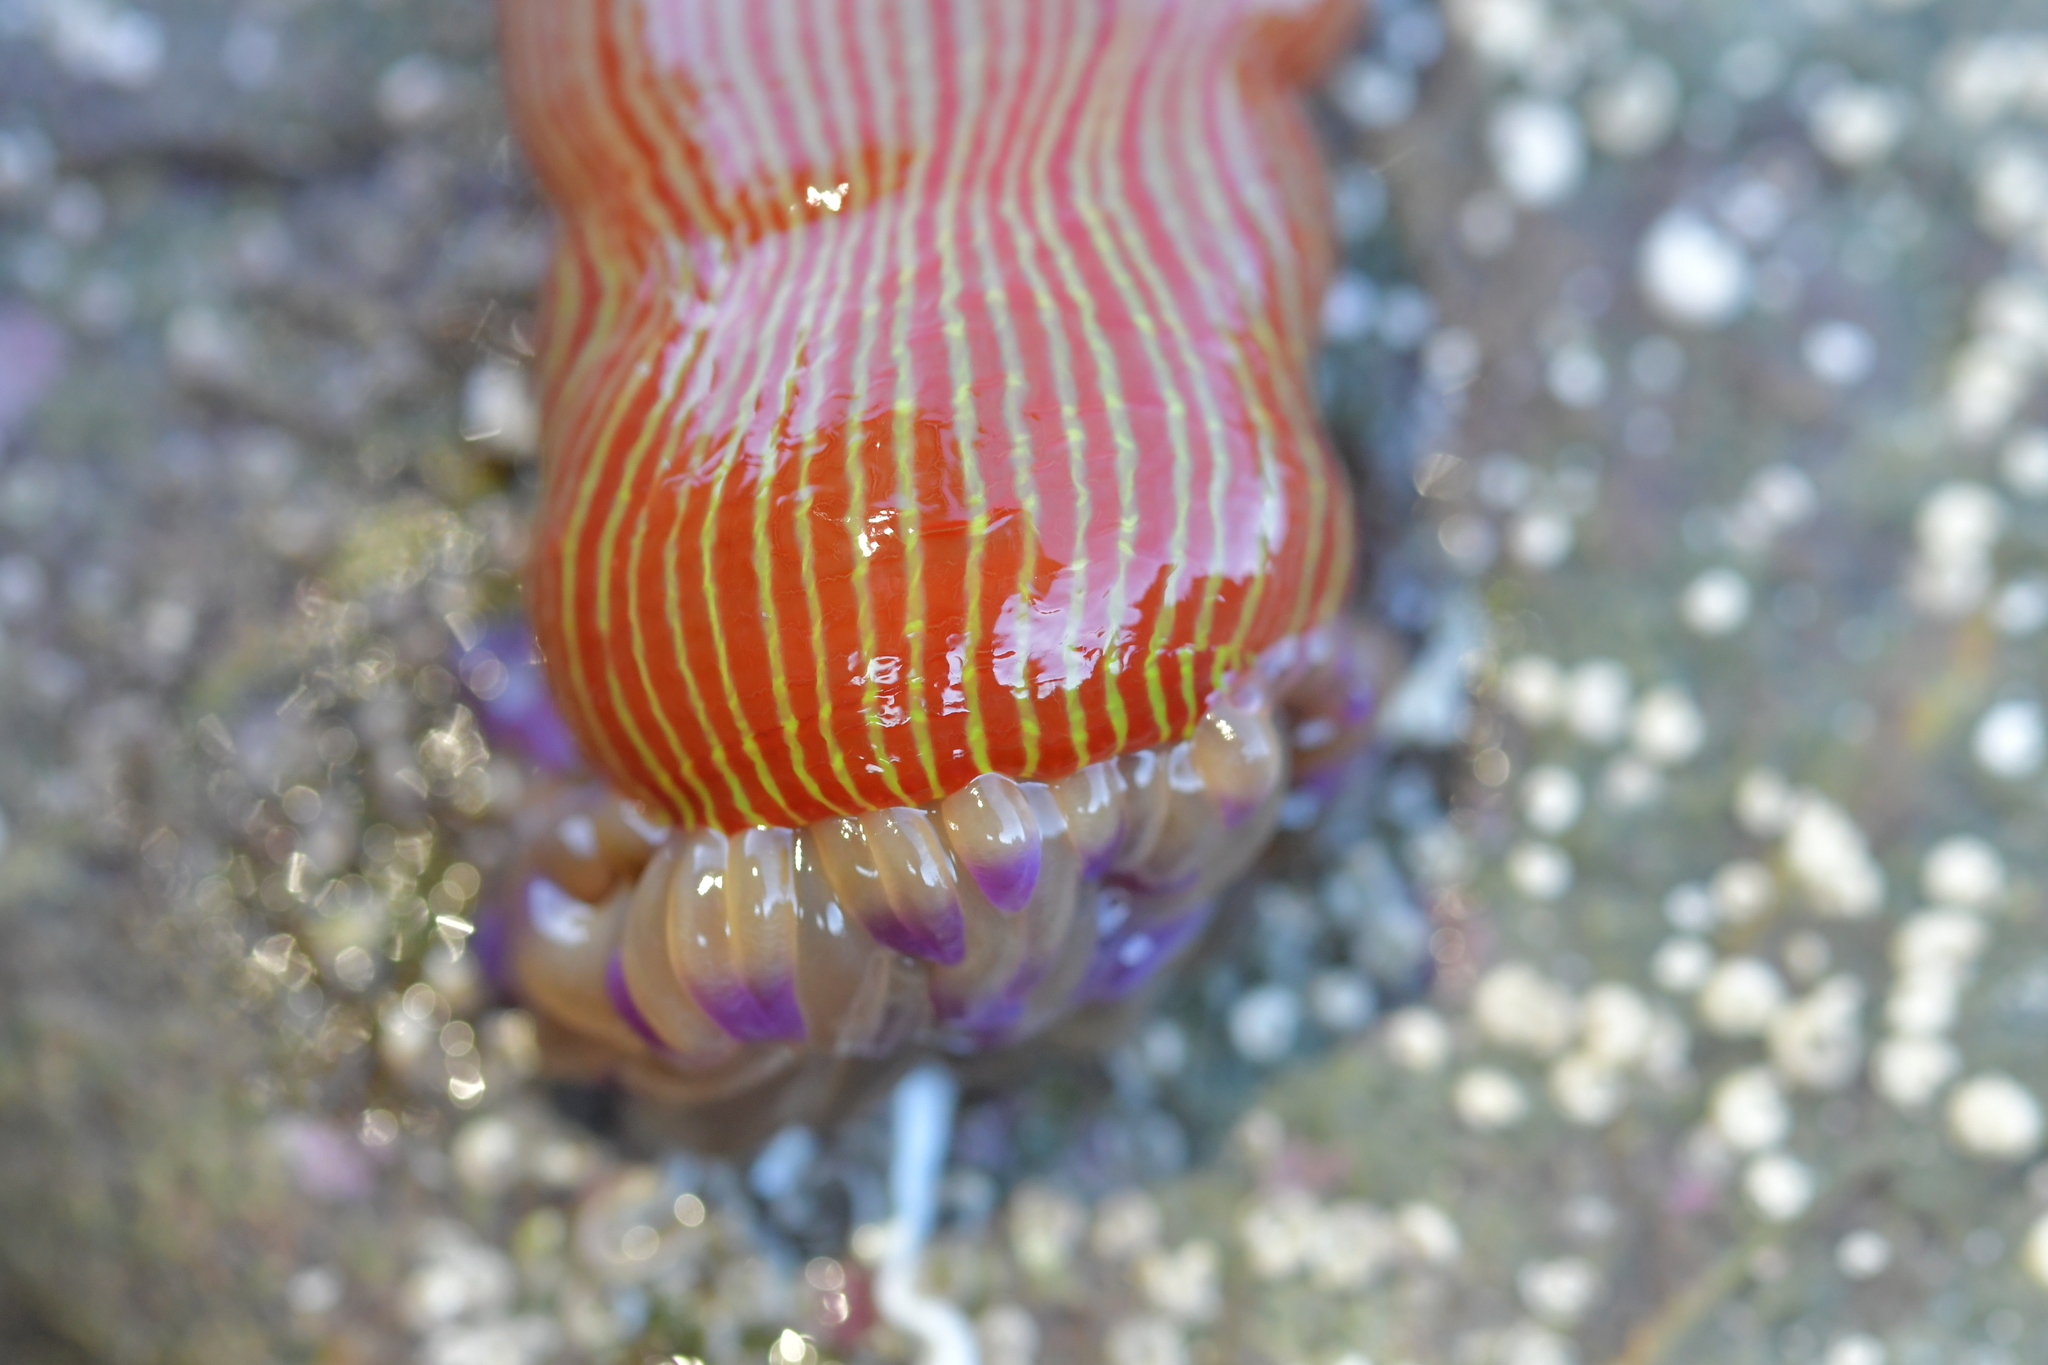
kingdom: Animalia
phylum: Cnidaria
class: Anthozoa
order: Actiniaria
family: Actiniidae
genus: Epiactis
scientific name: Epiactis thompsoni
